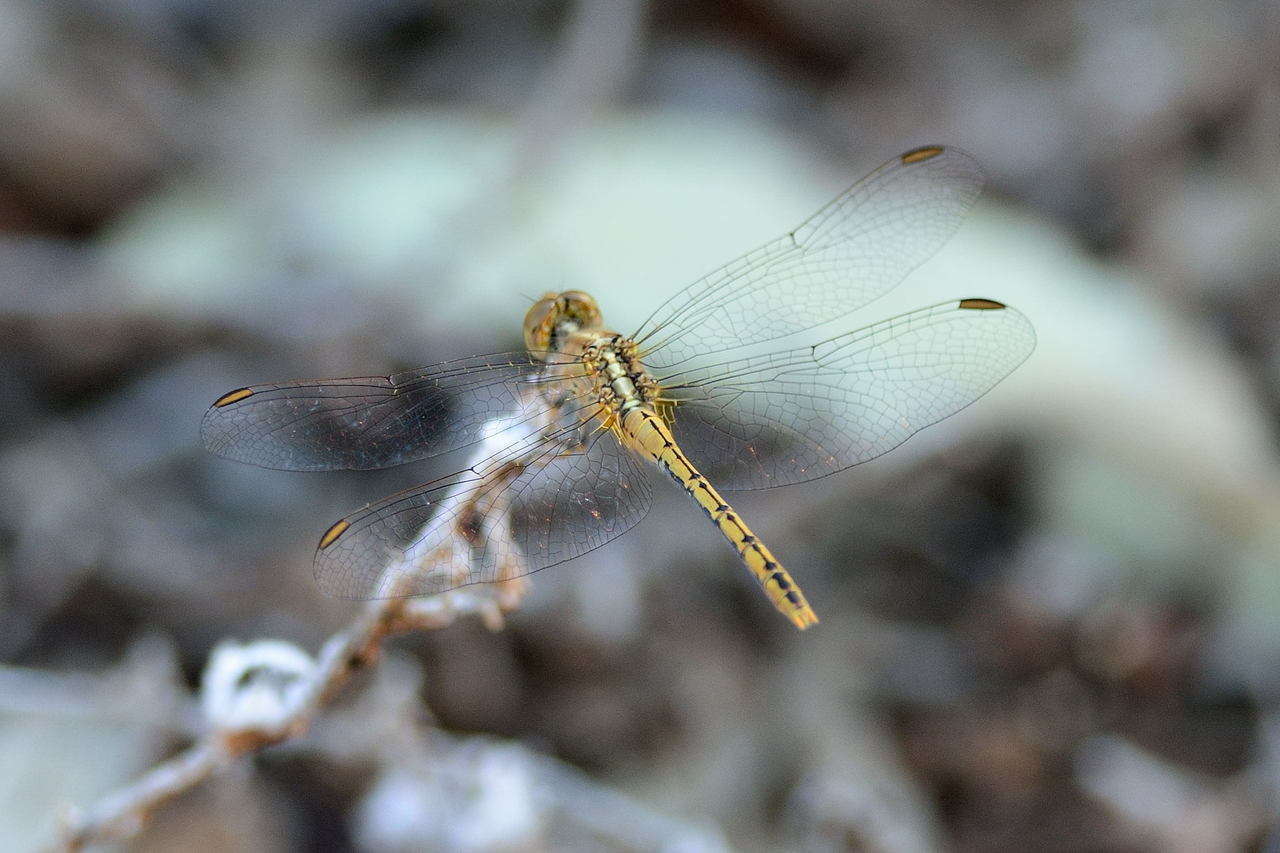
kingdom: Animalia
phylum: Arthropoda
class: Insecta
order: Odonata
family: Libellulidae
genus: Diplacodes
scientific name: Diplacodes bipunctata
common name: Red percher dragonfly
